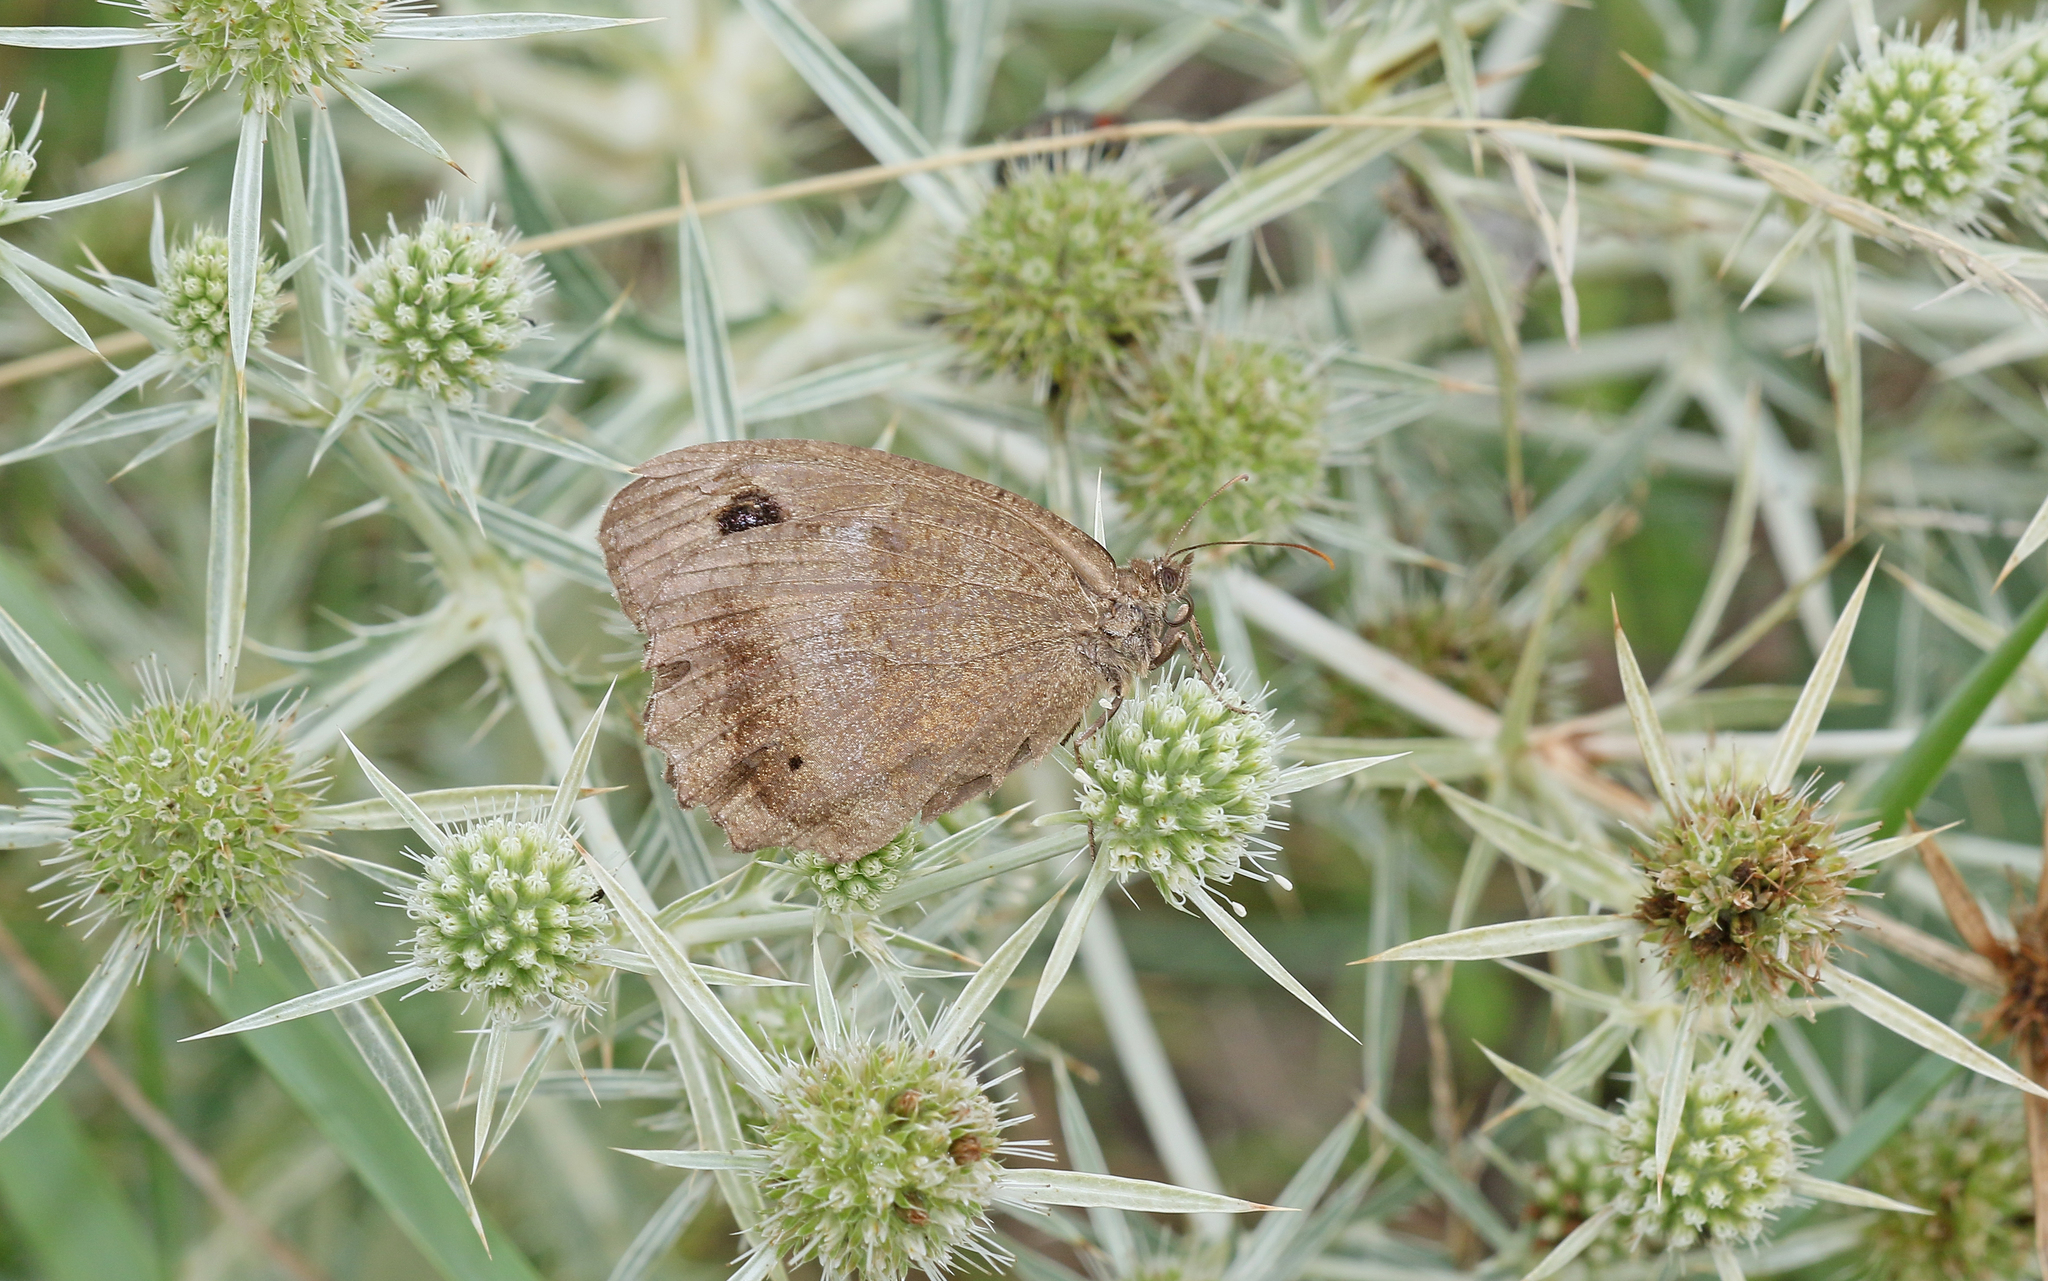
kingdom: Animalia
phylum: Arthropoda
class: Insecta
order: Lepidoptera
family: Nymphalidae
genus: Minois
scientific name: Minois dryas
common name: Dryad
